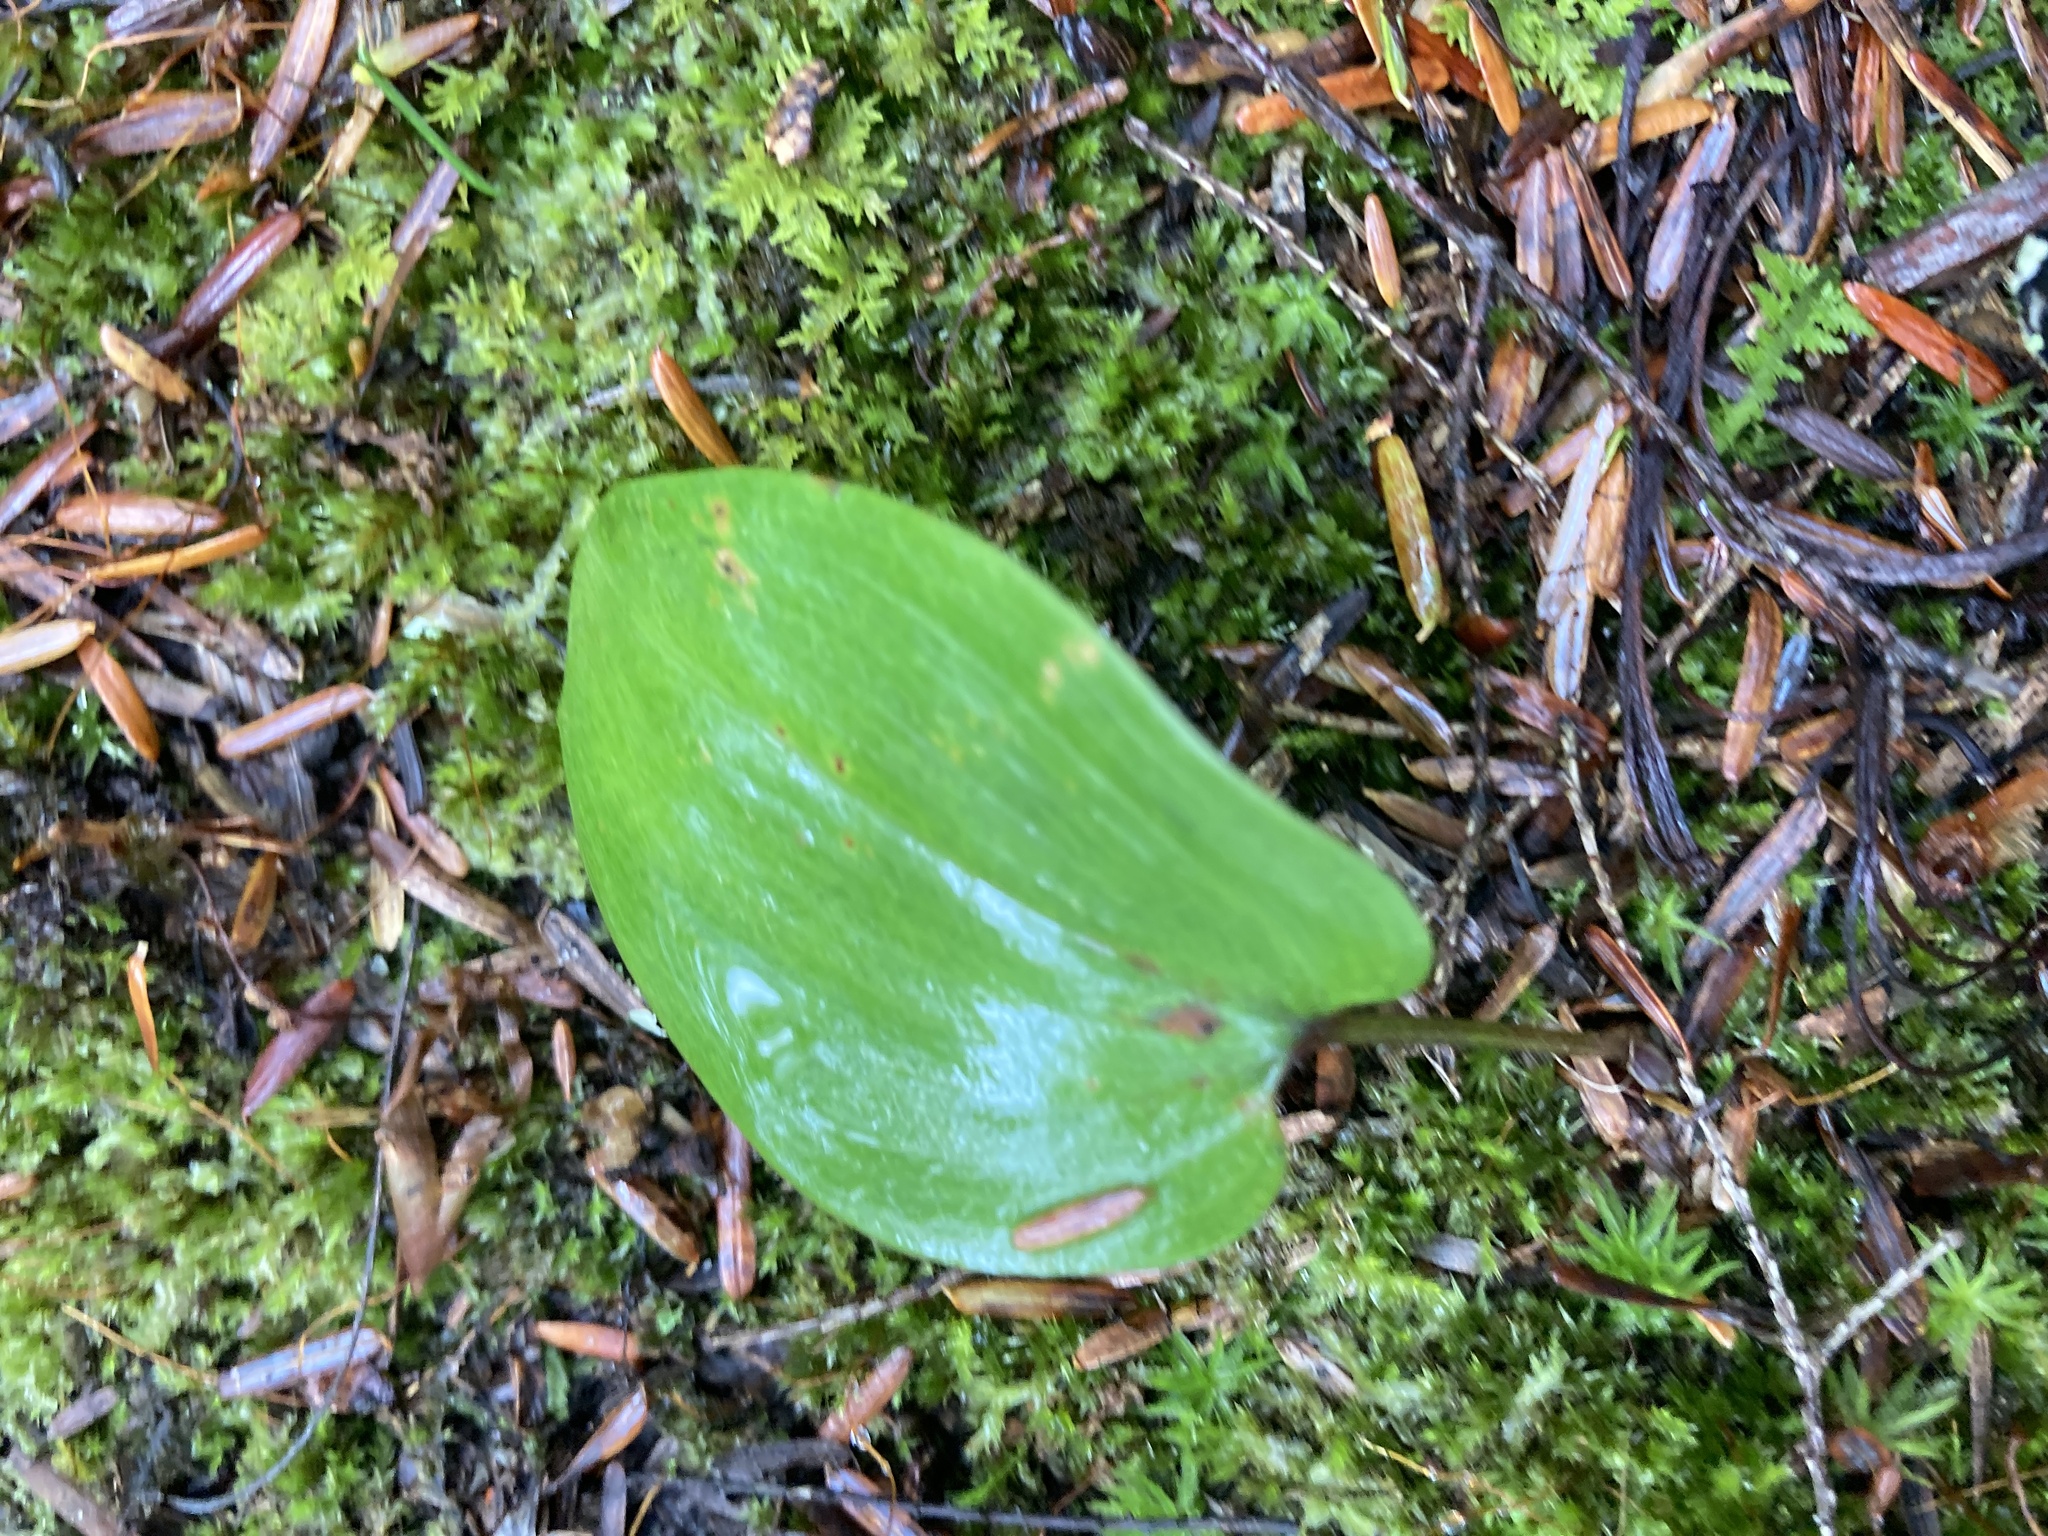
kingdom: Plantae
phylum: Tracheophyta
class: Liliopsida
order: Asparagales
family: Asparagaceae
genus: Maianthemum
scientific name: Maianthemum canadense
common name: False lily-of-the-valley
